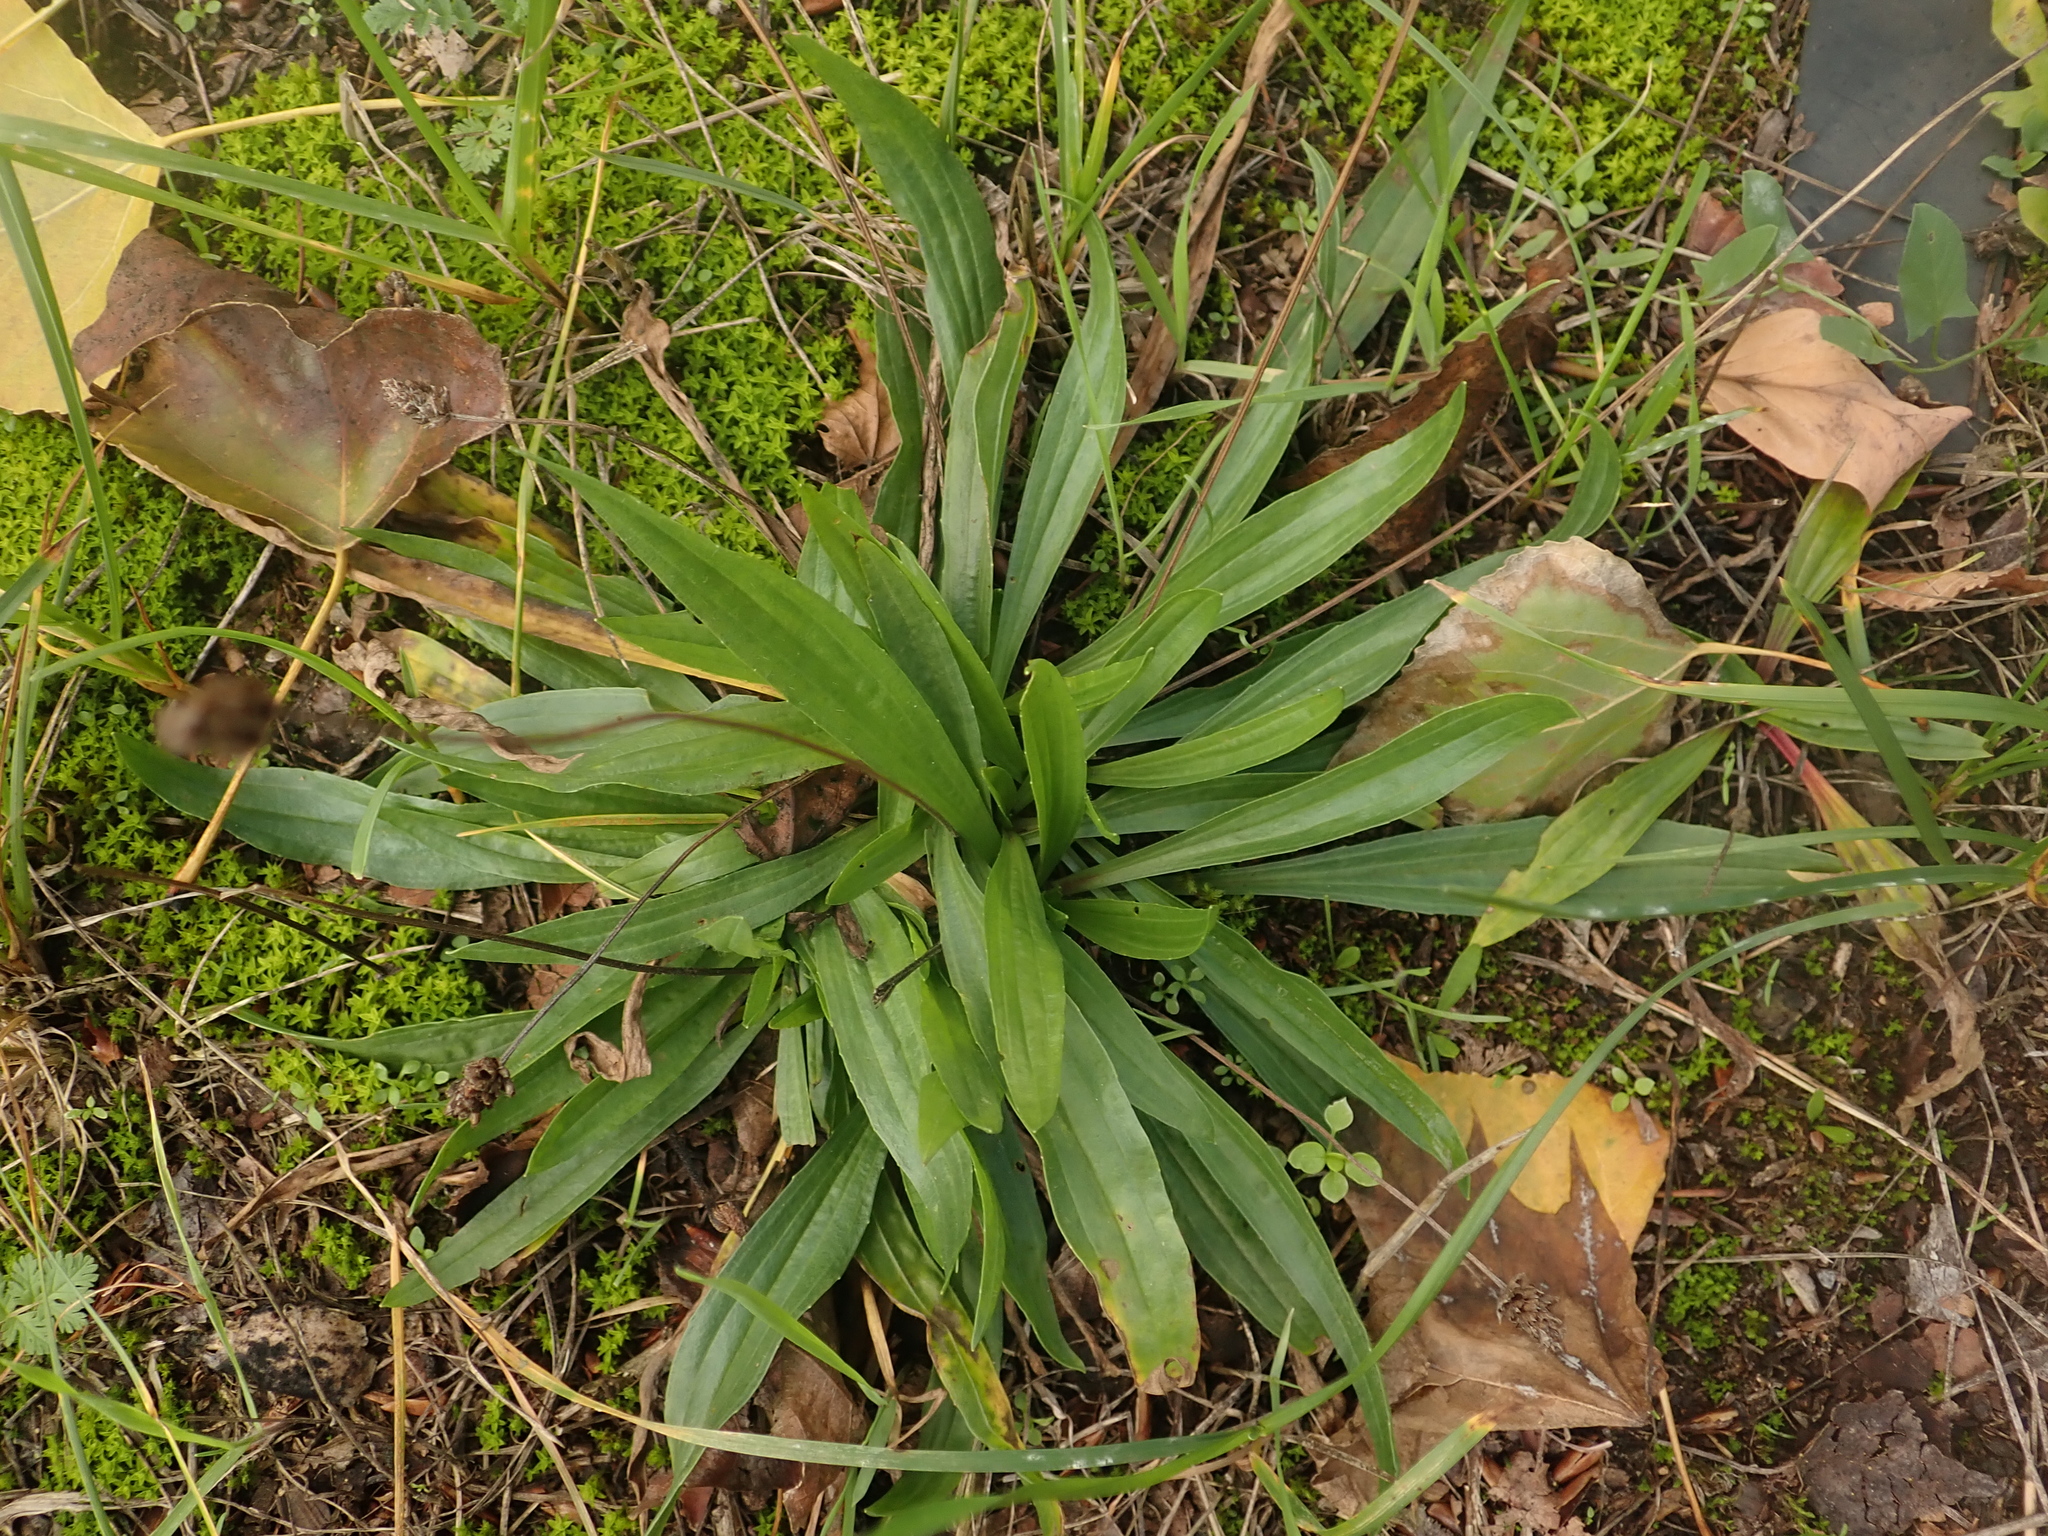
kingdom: Plantae
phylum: Tracheophyta
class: Magnoliopsida
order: Lamiales
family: Plantaginaceae
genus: Plantago
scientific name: Plantago lanceolata
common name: Ribwort plantain
